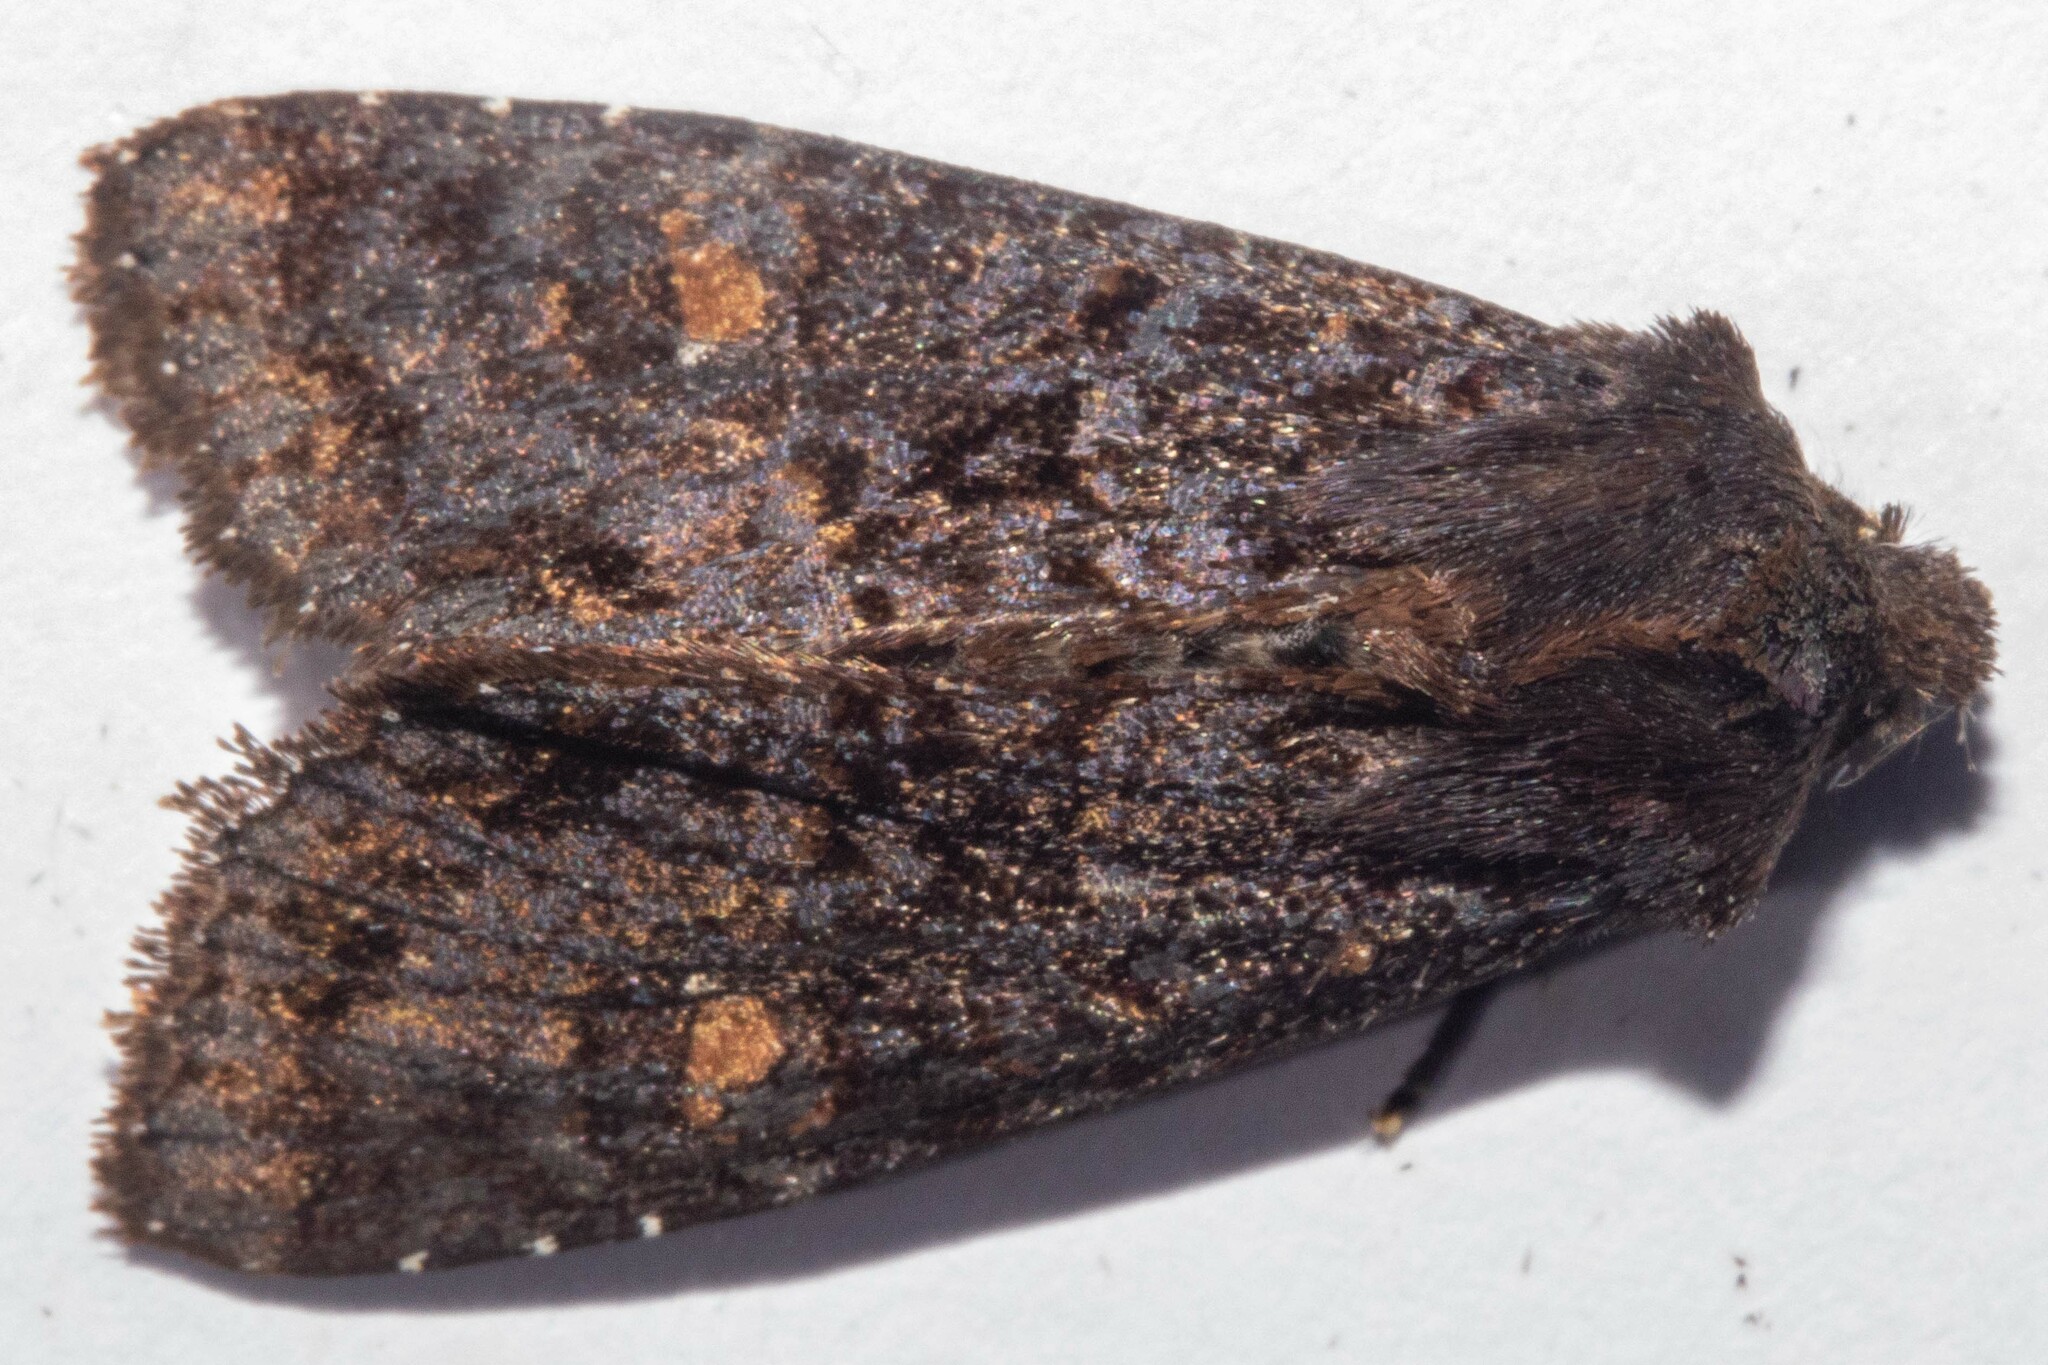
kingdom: Animalia
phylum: Arthropoda
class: Insecta
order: Lepidoptera
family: Noctuidae
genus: Meterana
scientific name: Meterana vitiosa
